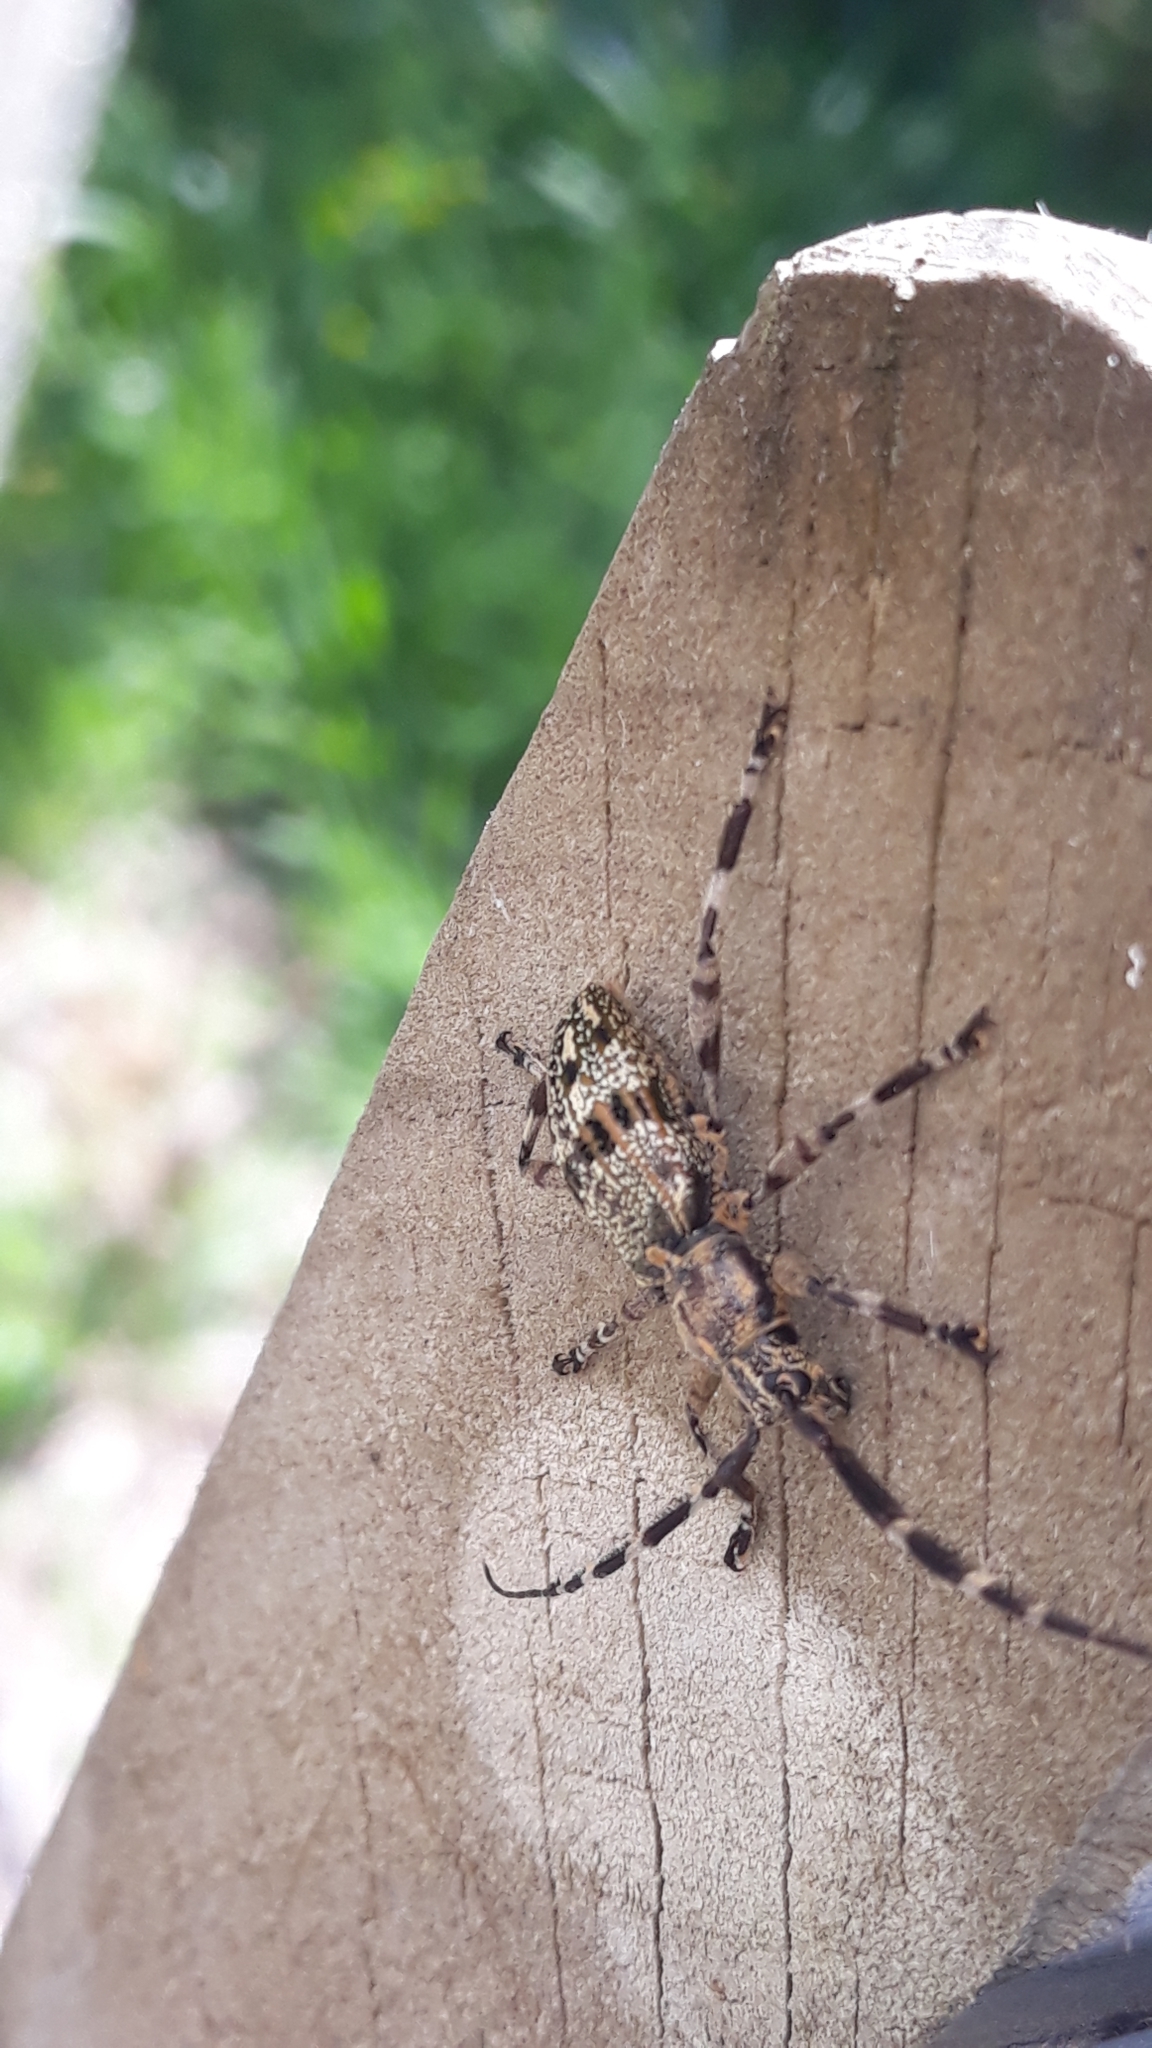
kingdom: Animalia
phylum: Arthropoda
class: Insecta
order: Coleoptera
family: Cerambycidae
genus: Hexatricha
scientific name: Hexatricha pulverulenta
